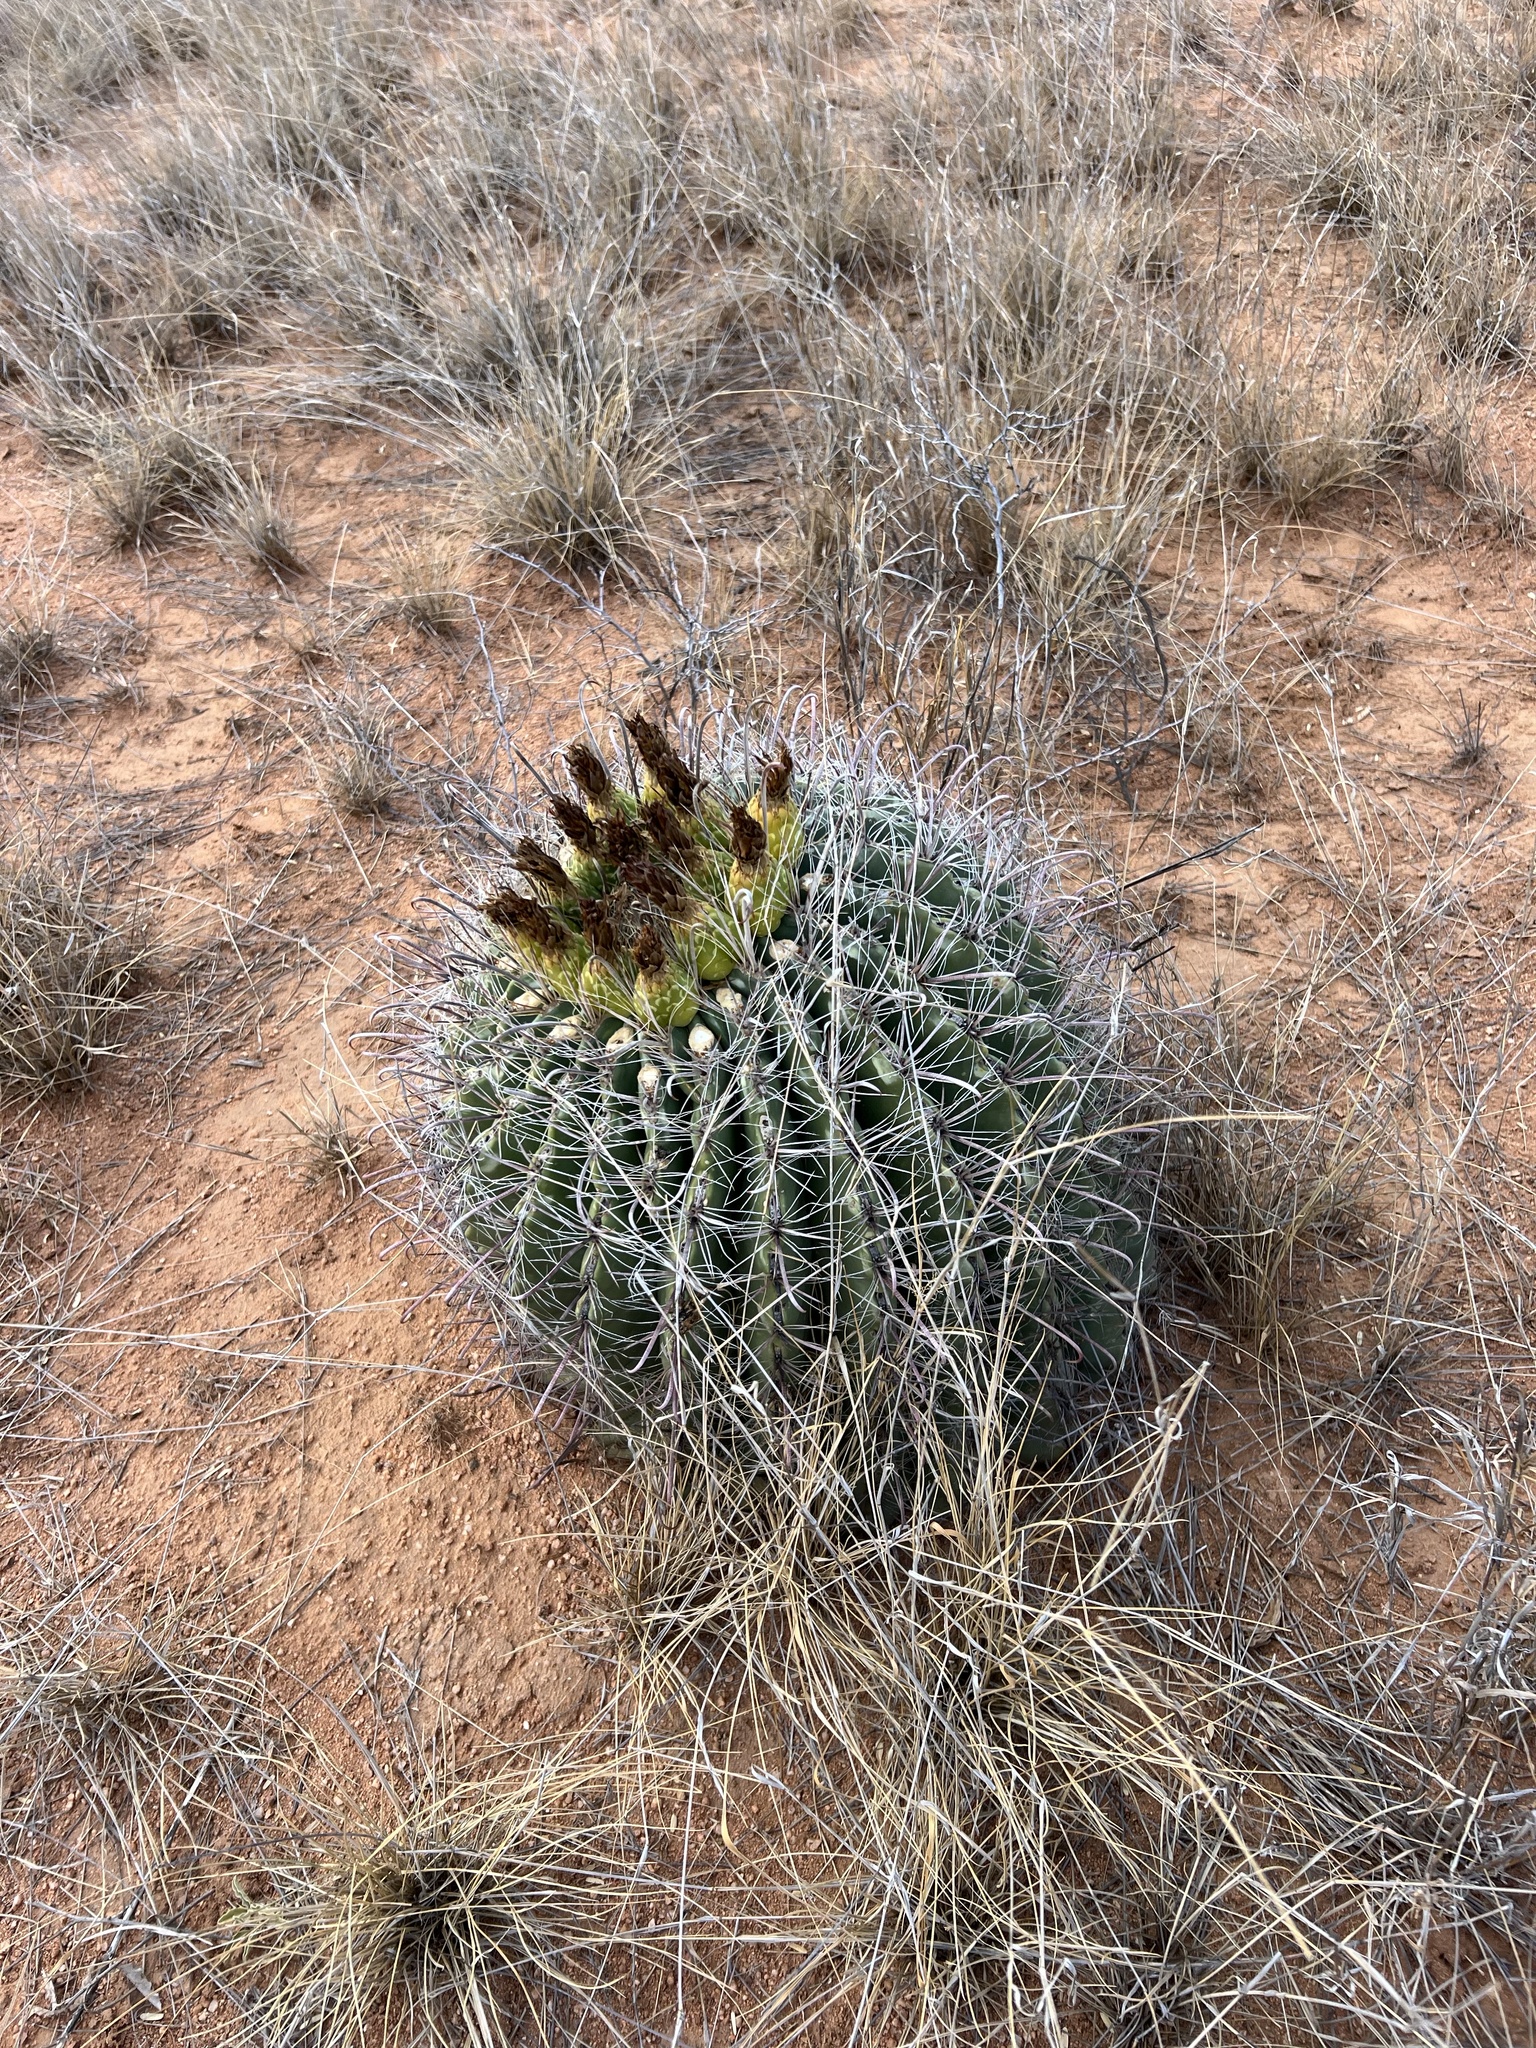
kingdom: Plantae
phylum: Tracheophyta
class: Magnoliopsida
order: Caryophyllales
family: Cactaceae
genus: Ferocactus
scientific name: Ferocactus wislizeni
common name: Candy barrel cactus
